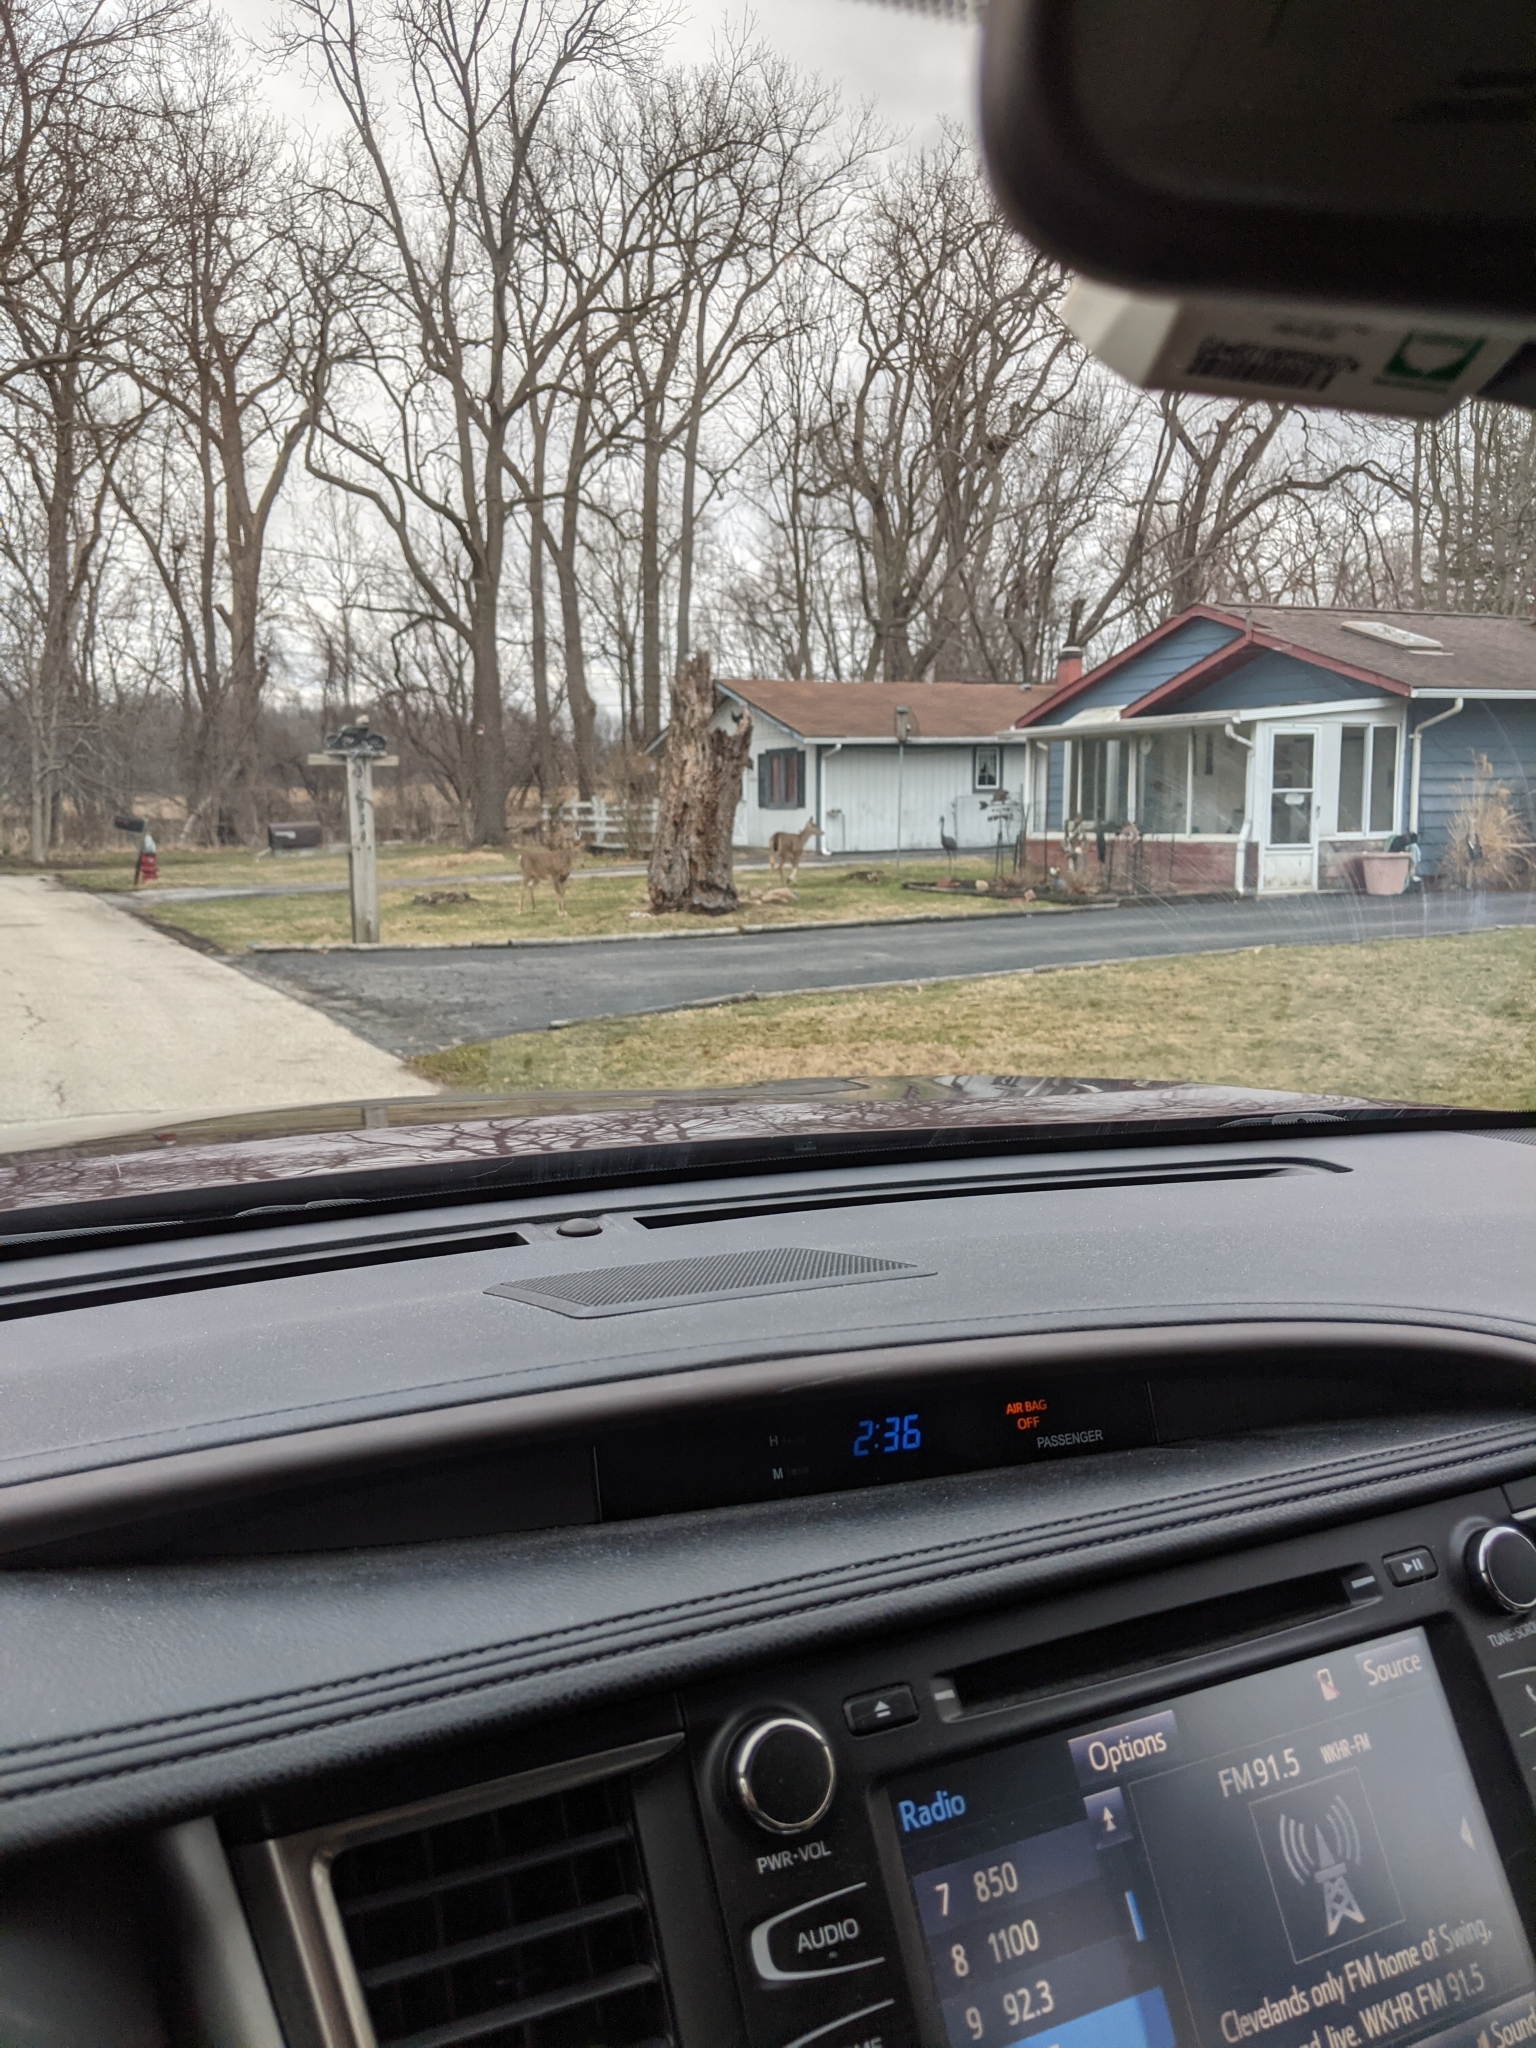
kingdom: Animalia
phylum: Chordata
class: Mammalia
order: Artiodactyla
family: Cervidae
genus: Odocoileus
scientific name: Odocoileus virginianus
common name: White-tailed deer
